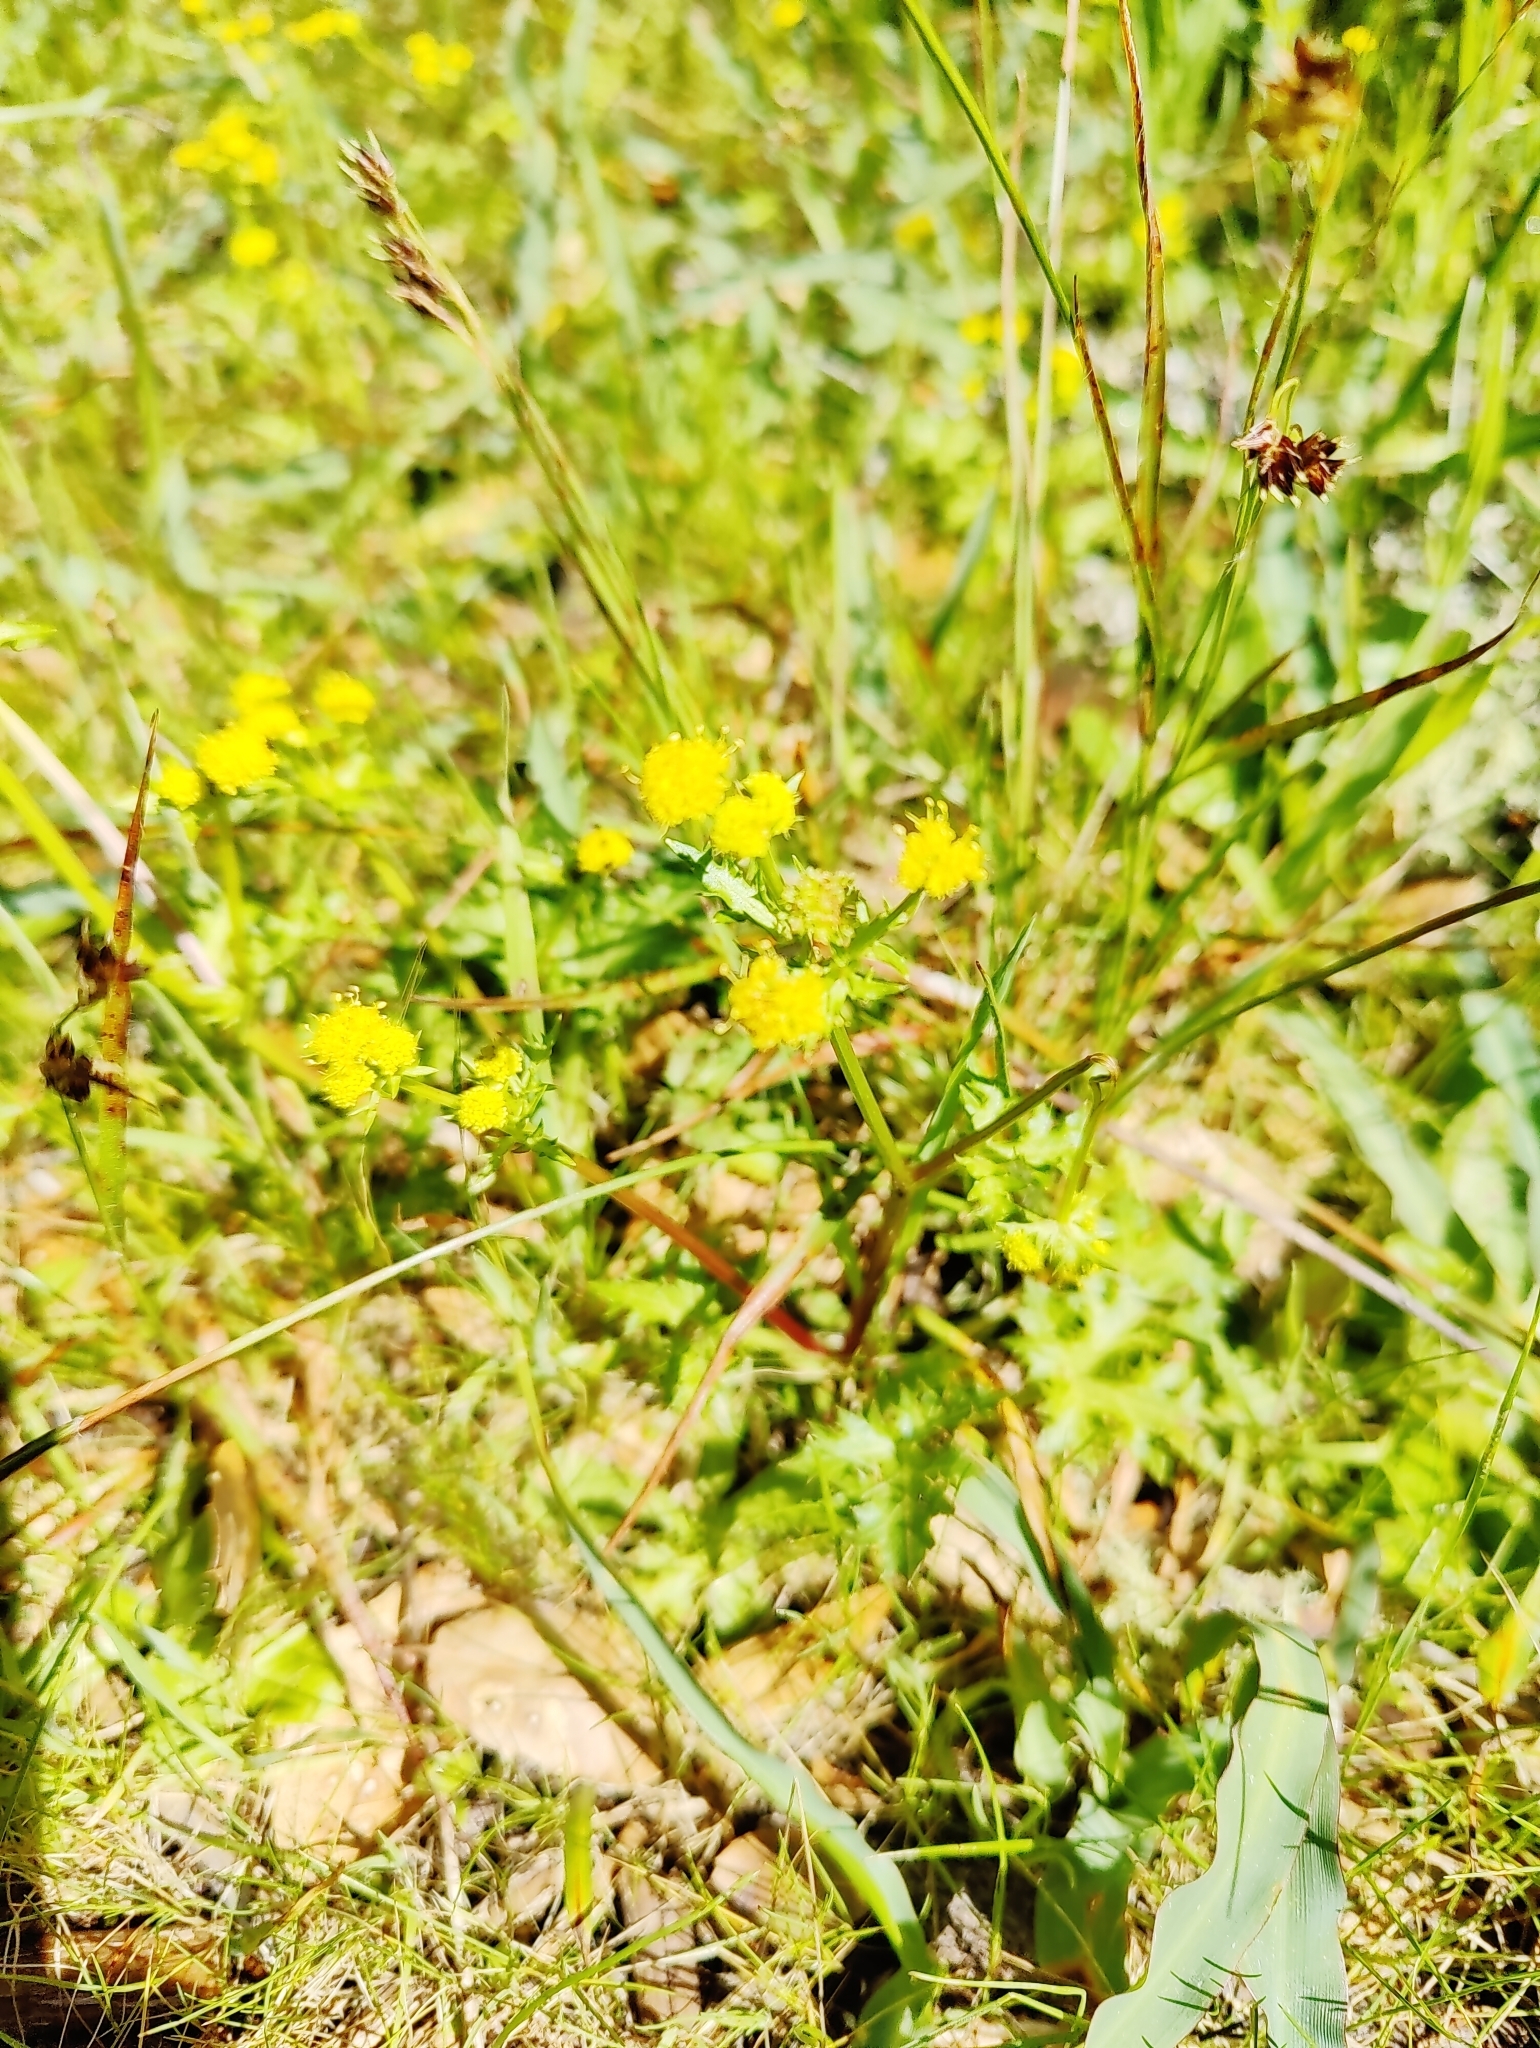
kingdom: Plantae
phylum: Tracheophyta
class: Magnoliopsida
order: Apiales
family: Apiaceae
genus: Sanicula
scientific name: Sanicula laciniata
